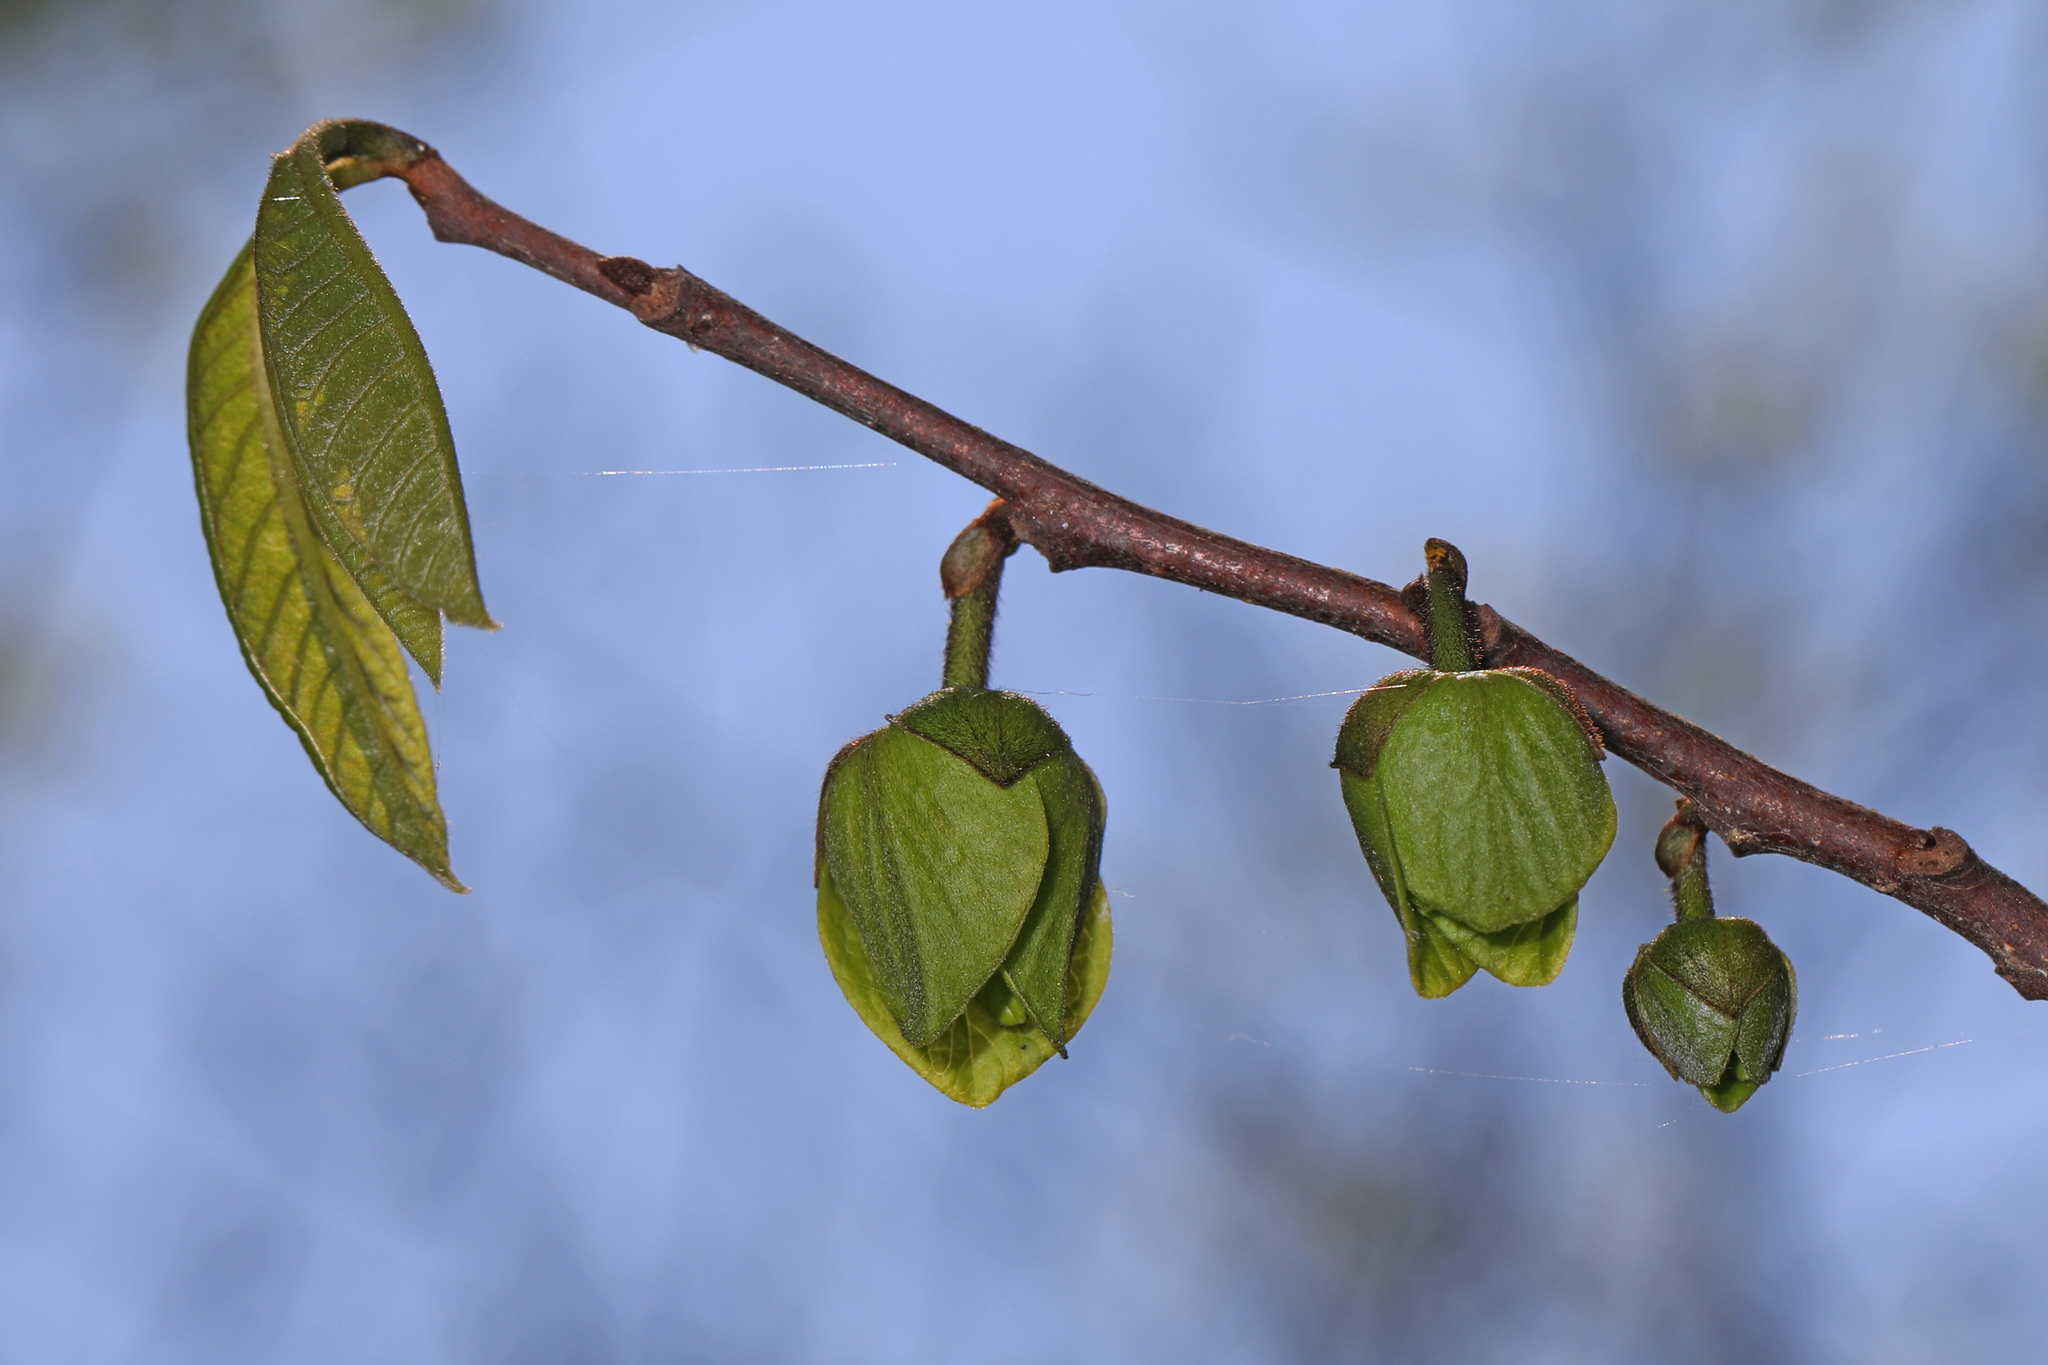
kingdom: Plantae
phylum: Tracheophyta
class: Magnoliopsida
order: Magnoliales
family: Annonaceae
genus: Asimina
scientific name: Asimina triloba
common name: Dog-banana
